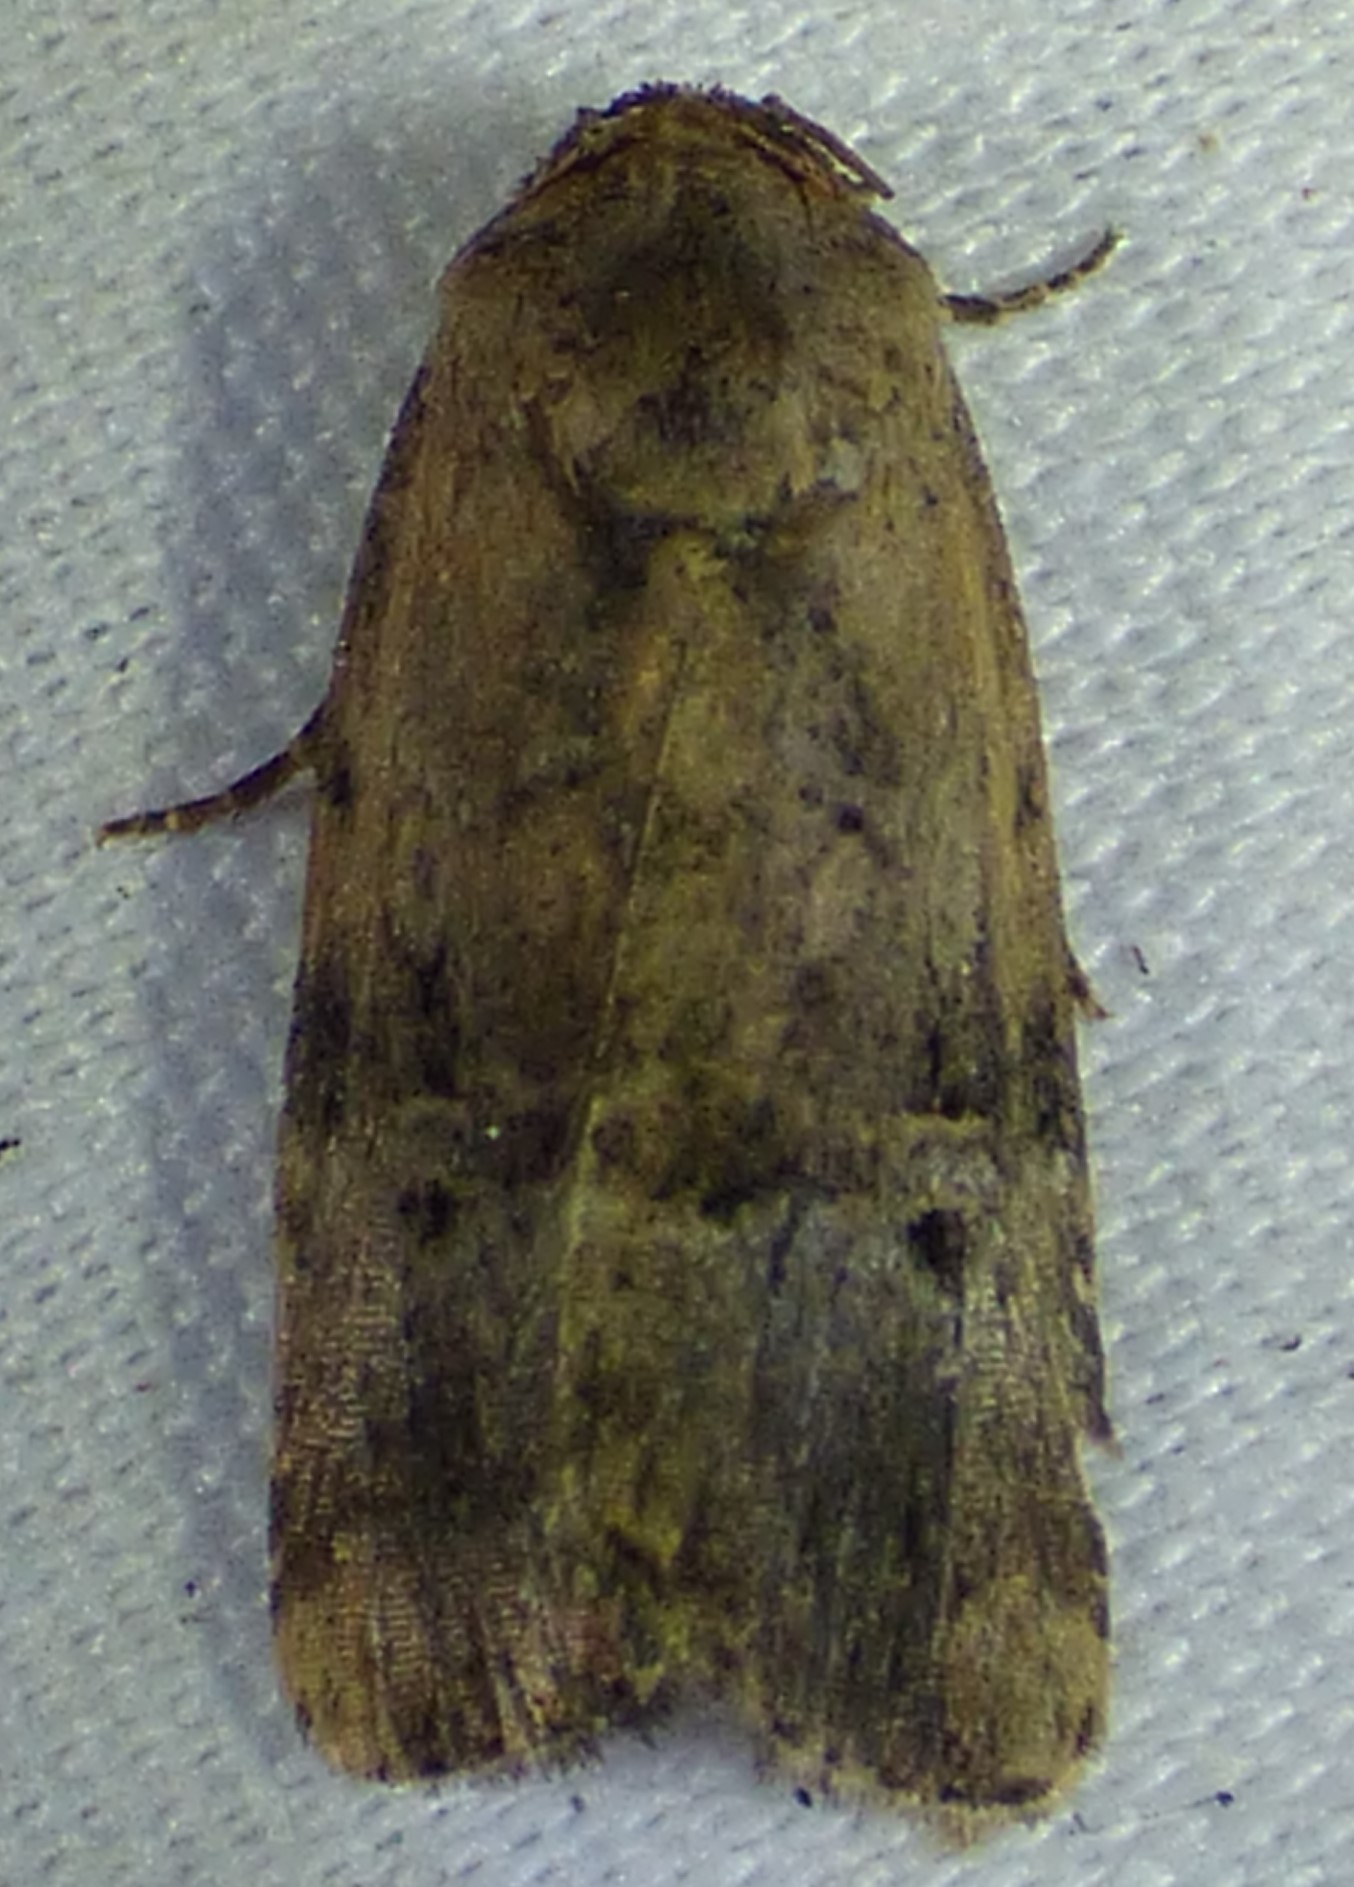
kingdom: Animalia
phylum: Arthropoda
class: Insecta
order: Lepidoptera
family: Noctuidae
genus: Elaphria
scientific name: Elaphria chalcedonia
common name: Chalcedony midget
